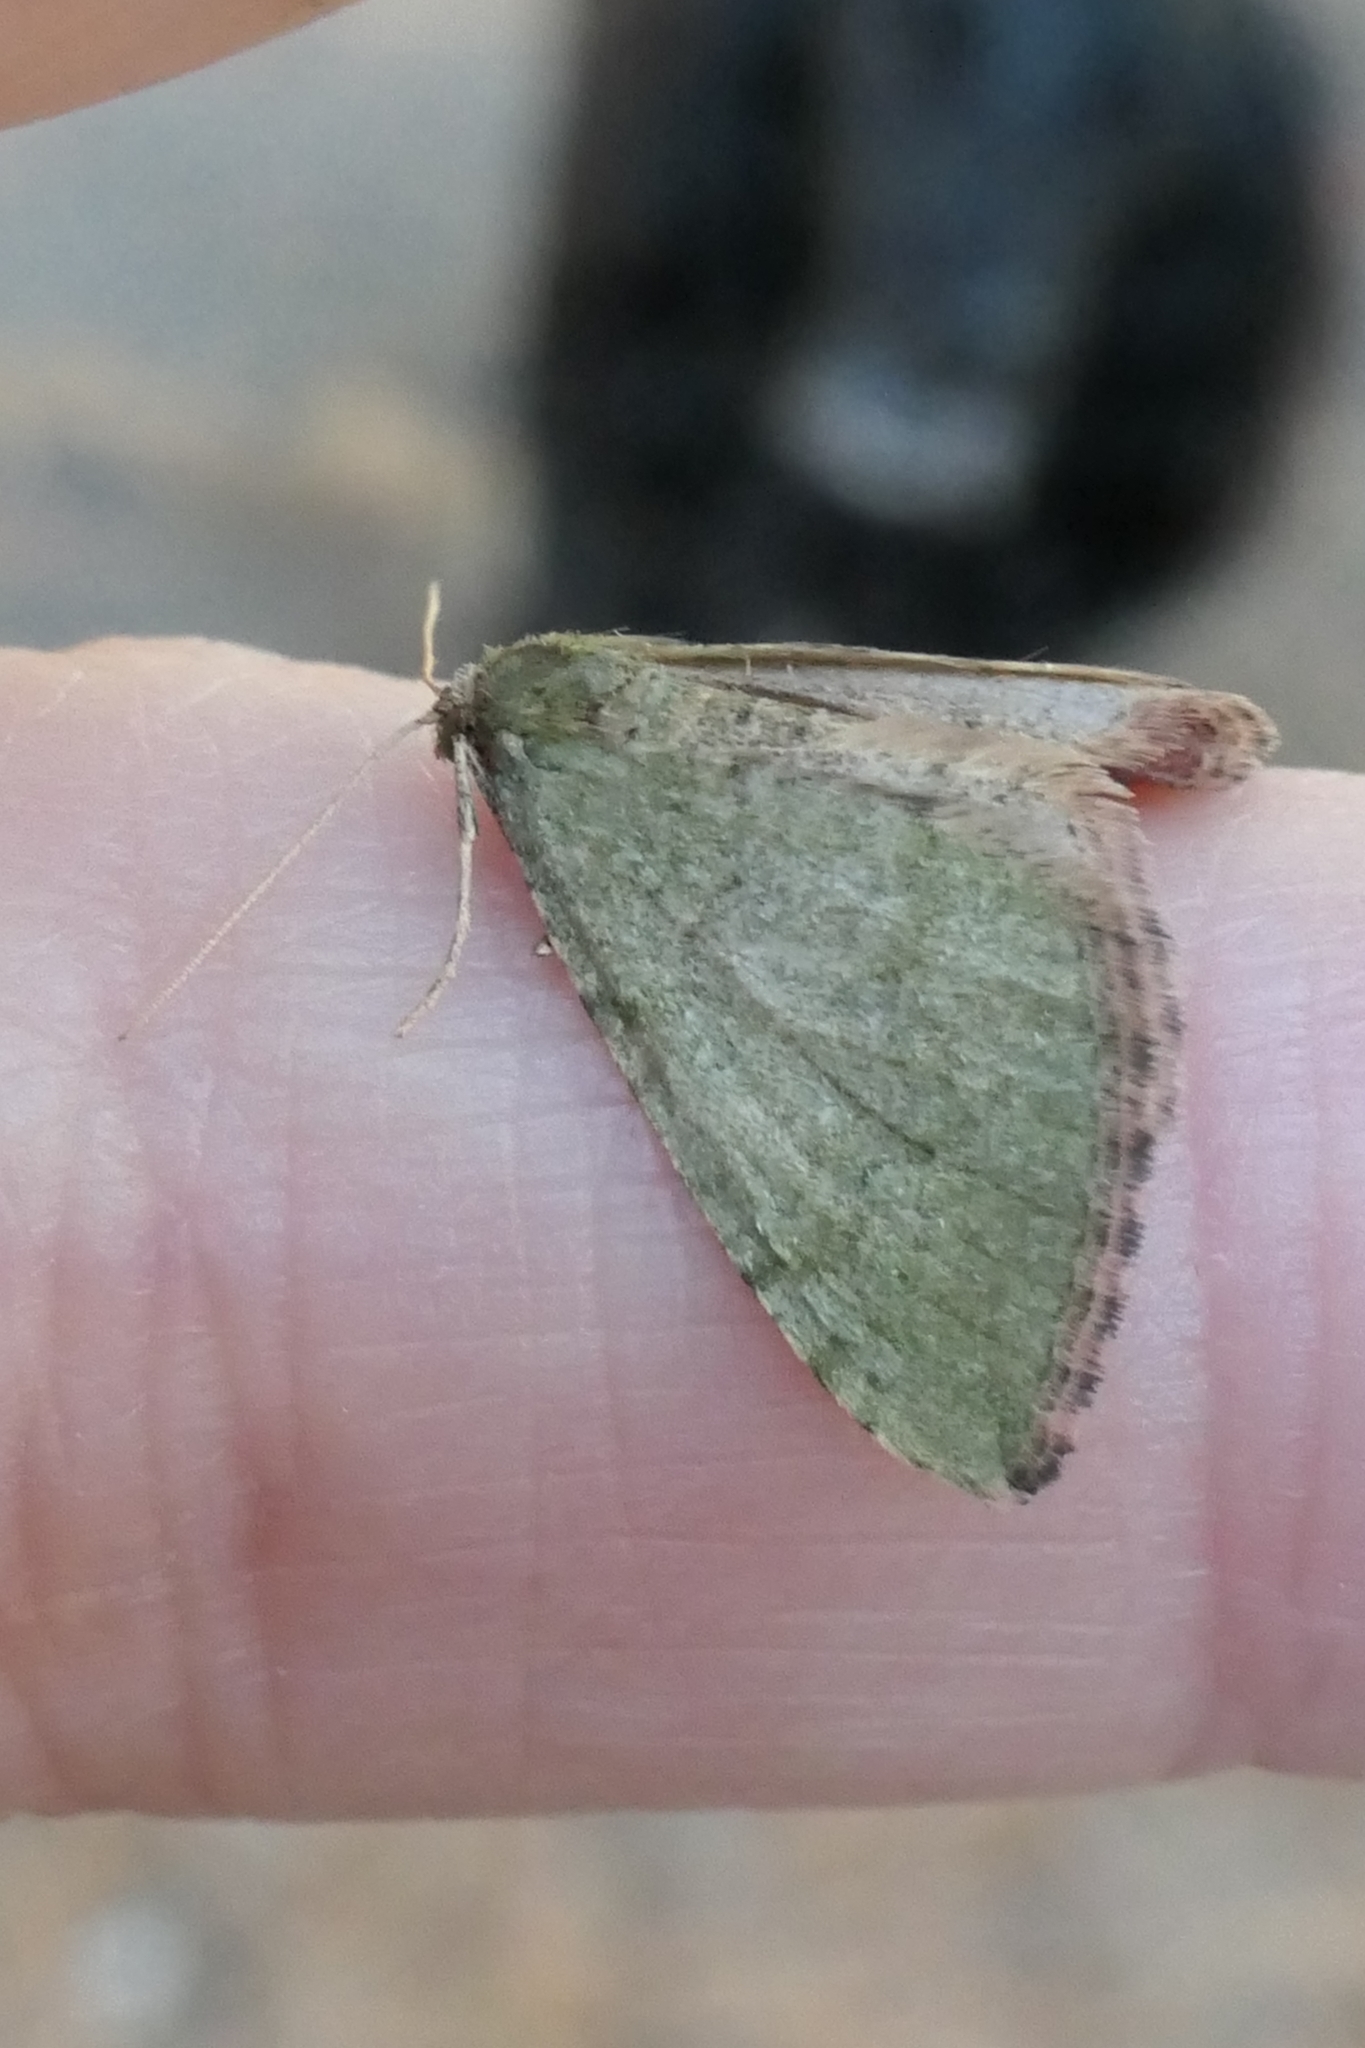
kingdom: Animalia
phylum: Arthropoda
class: Insecta
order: Lepidoptera
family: Geometridae
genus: Epyaxa
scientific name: Epyaxa rosearia
